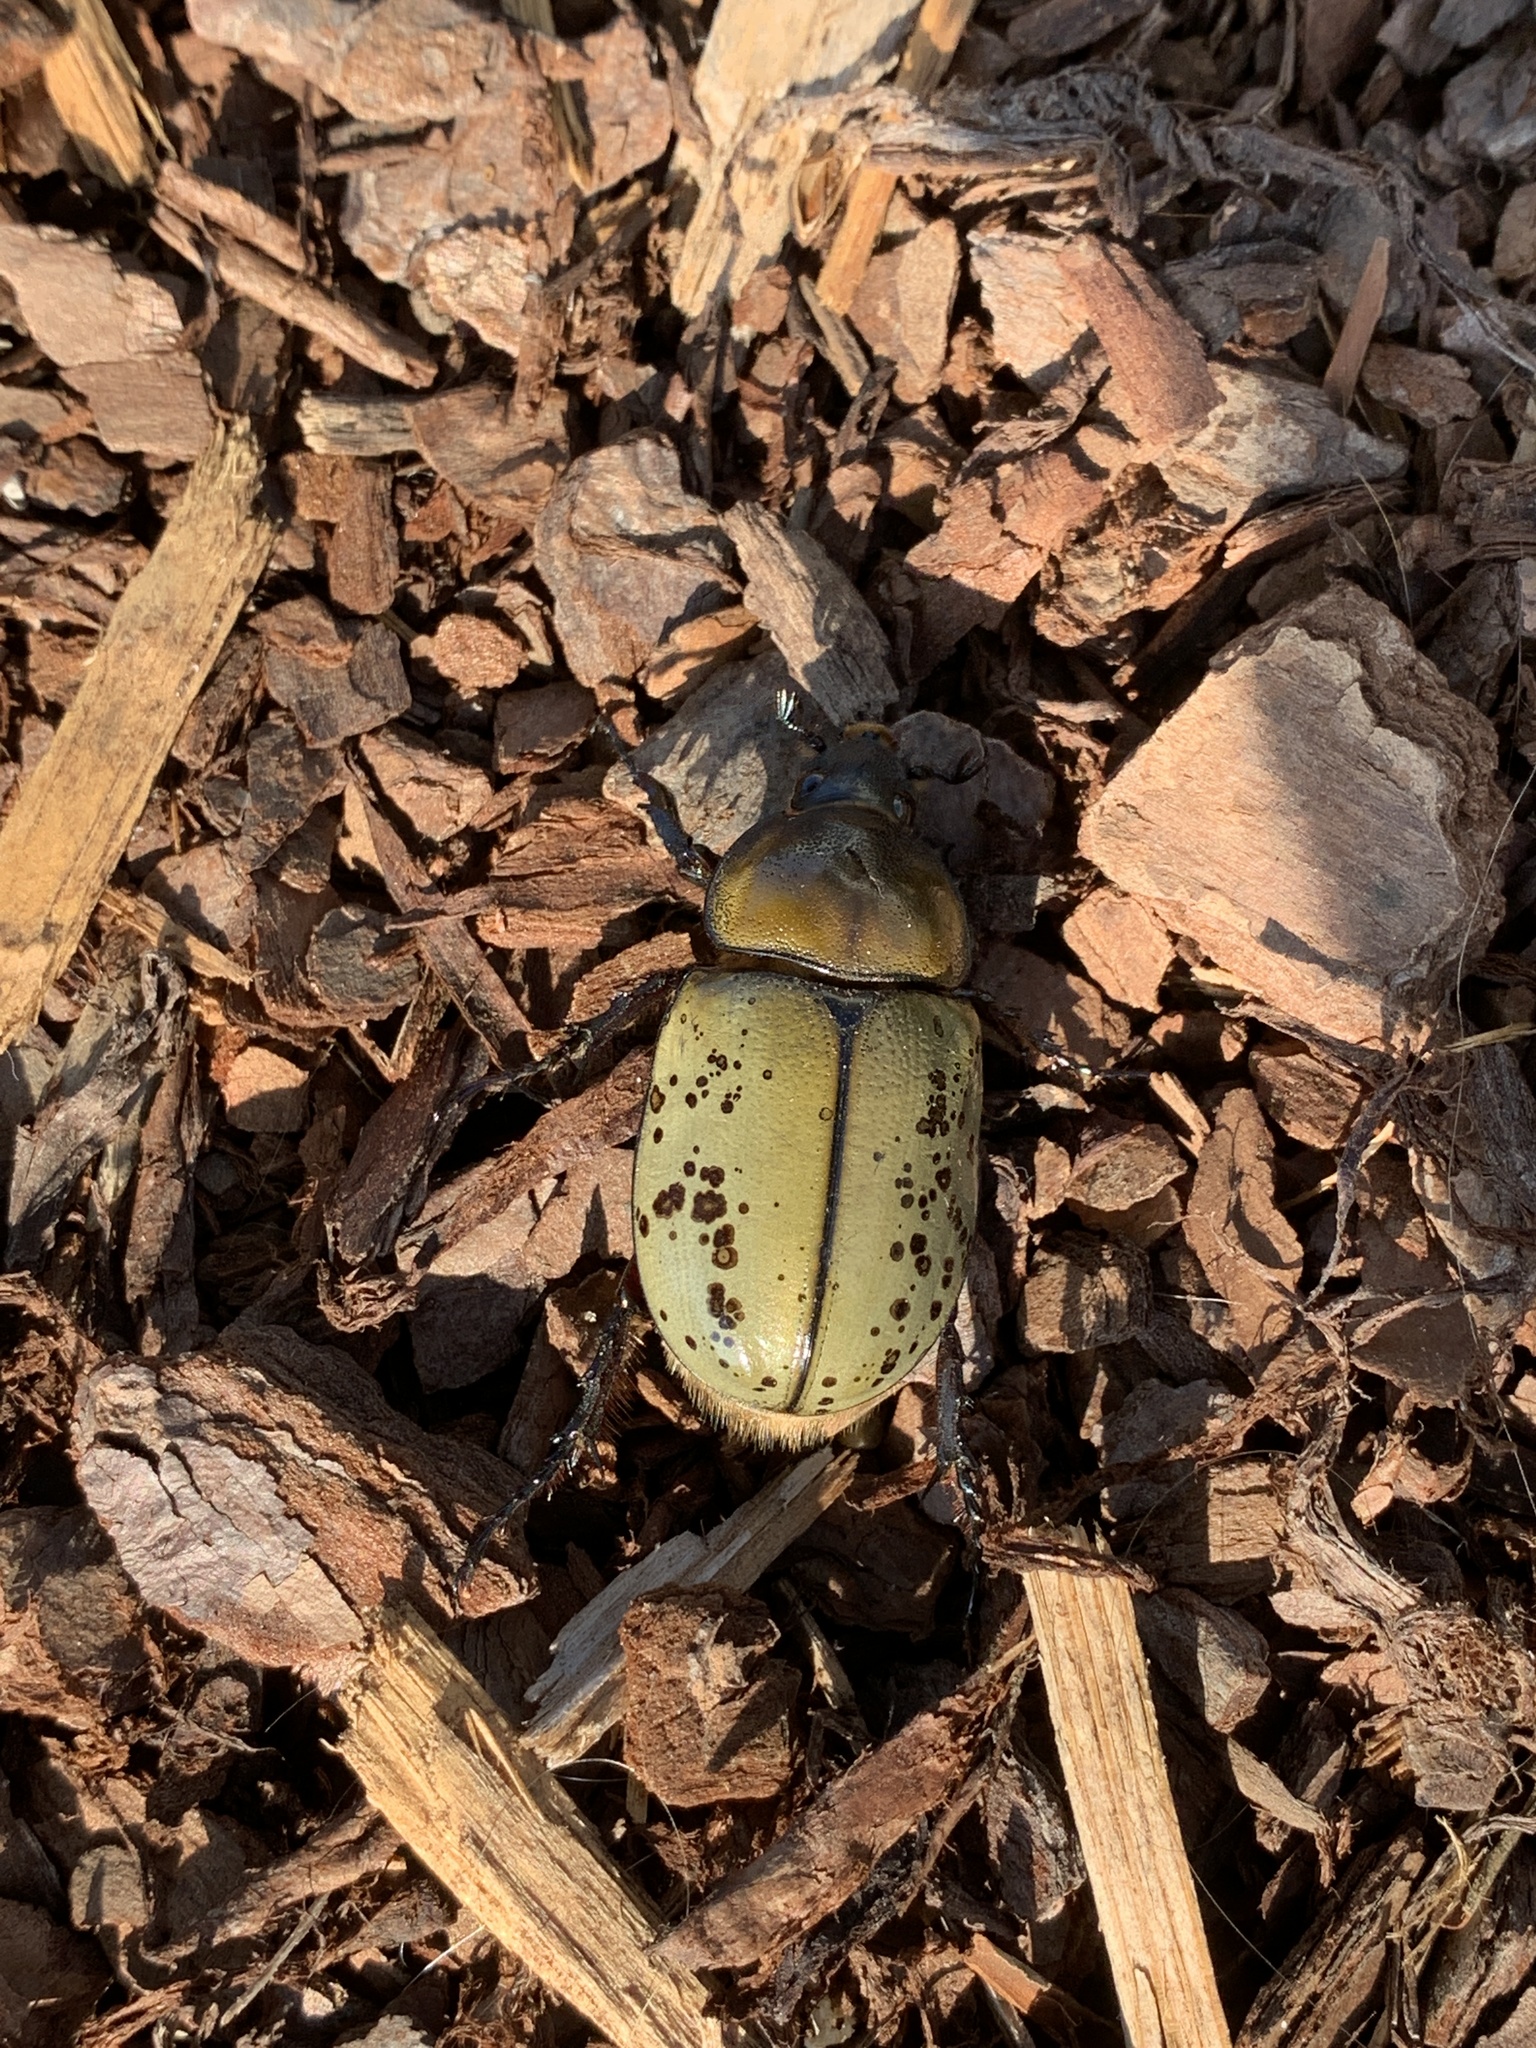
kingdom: Animalia
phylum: Arthropoda
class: Insecta
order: Coleoptera
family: Scarabaeidae
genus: Dynastes
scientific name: Dynastes tityus
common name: Eastern hercules beetle
